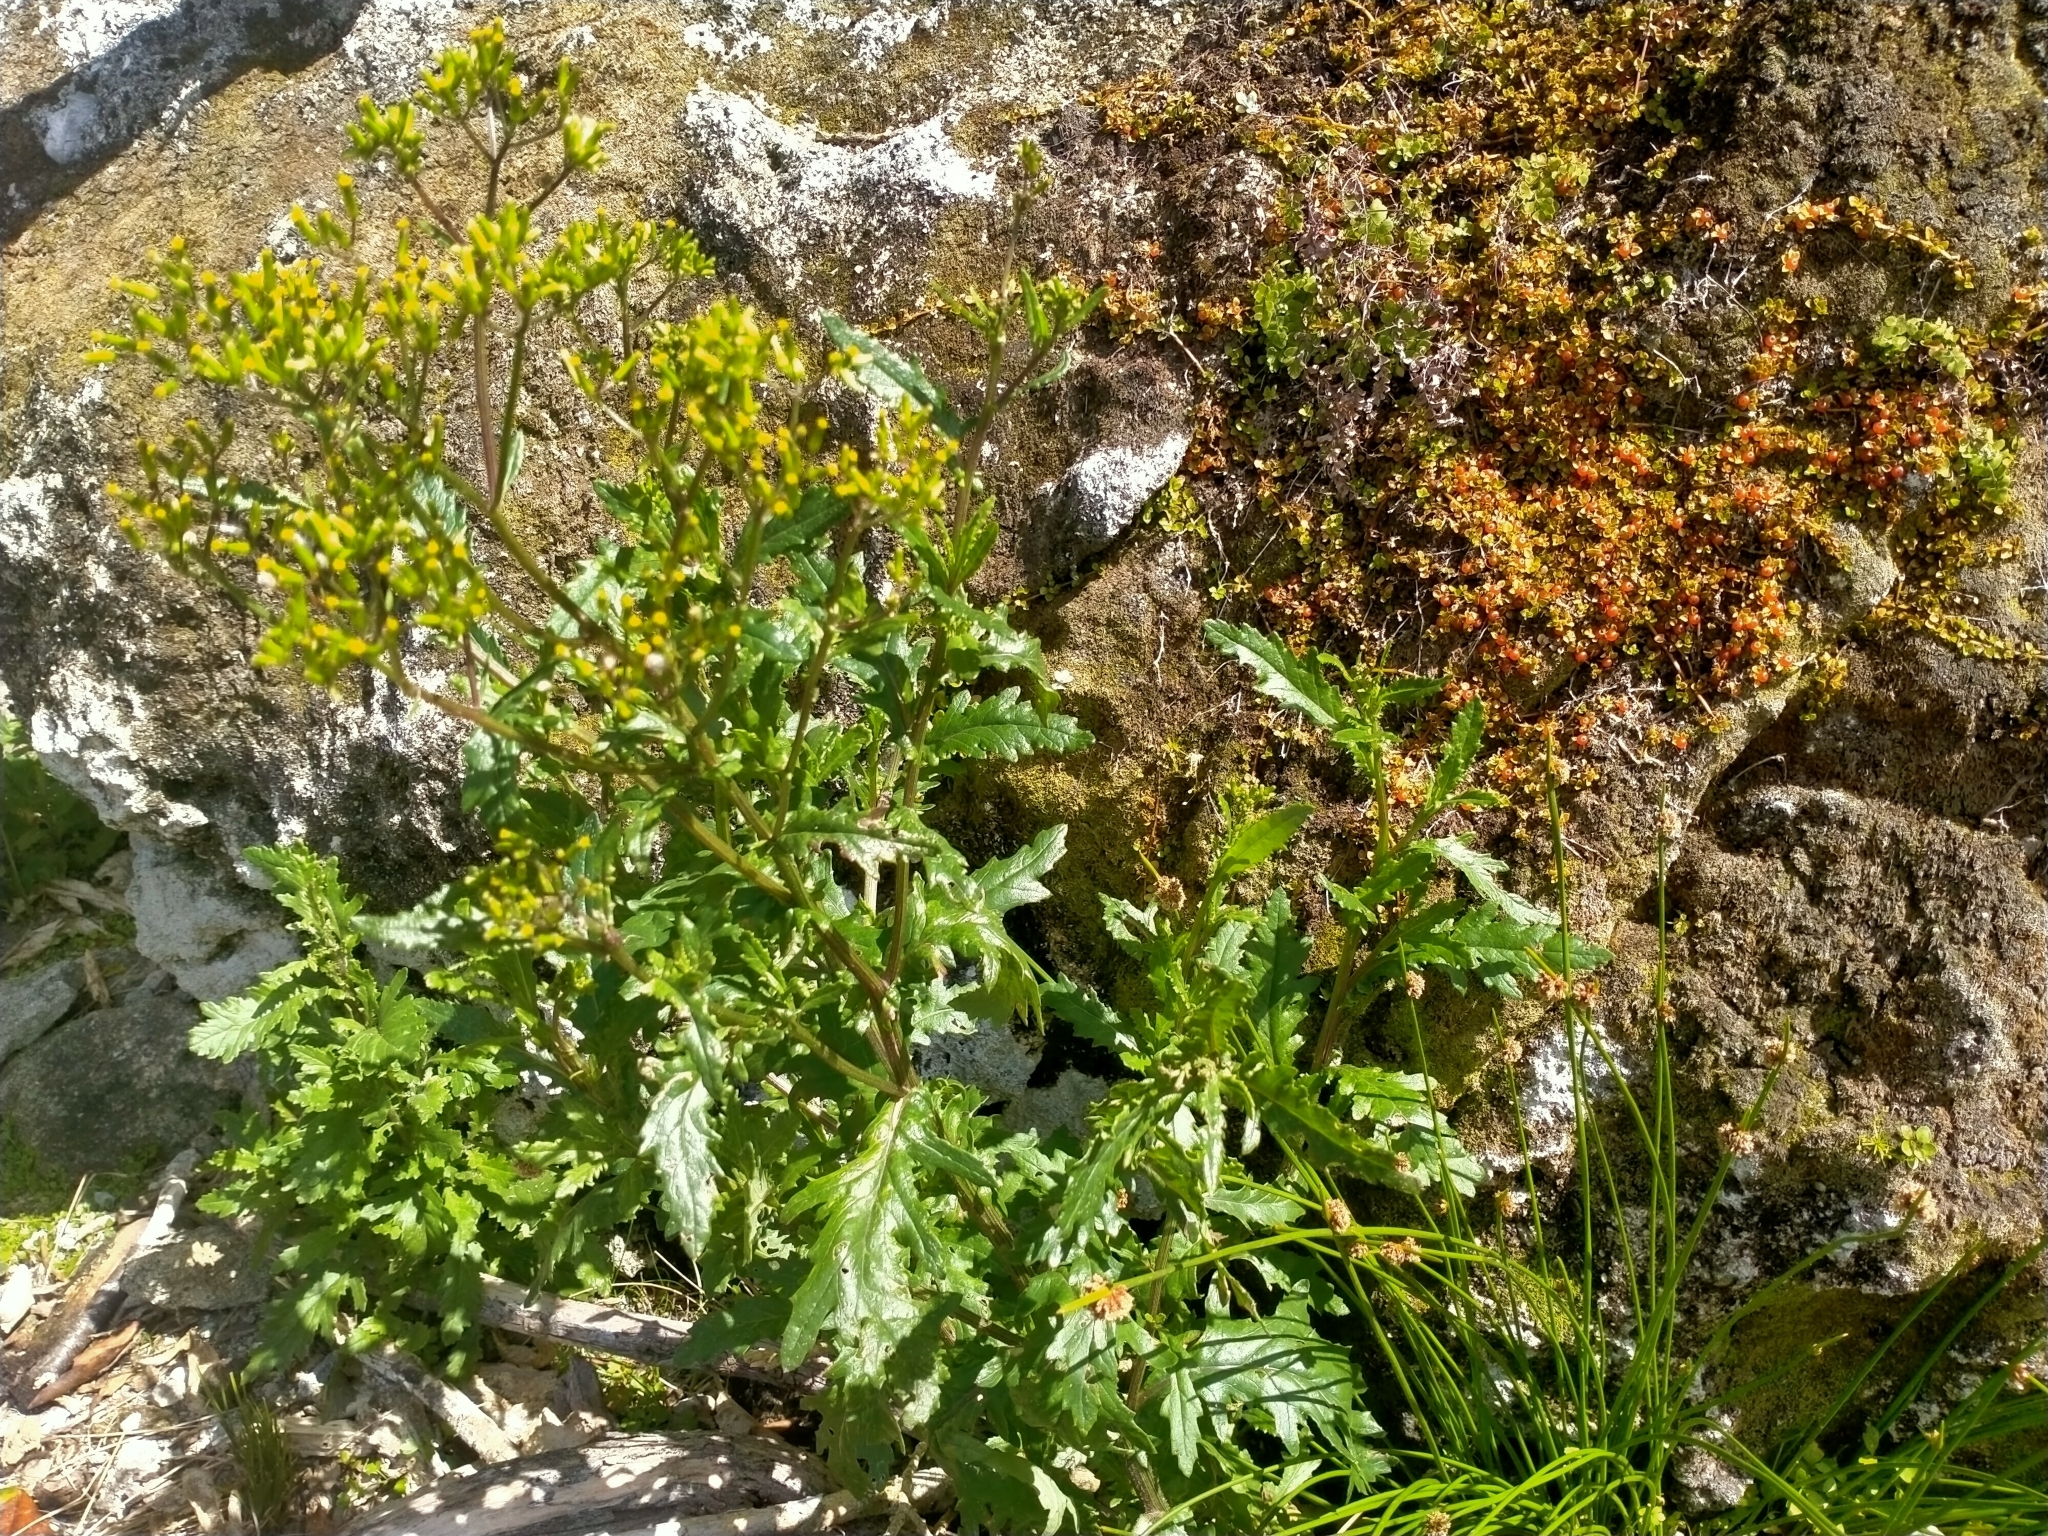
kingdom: Plantae
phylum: Tracheophyta
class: Magnoliopsida
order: Asterales
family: Asteraceae
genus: Senecio
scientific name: Senecio biserratus
